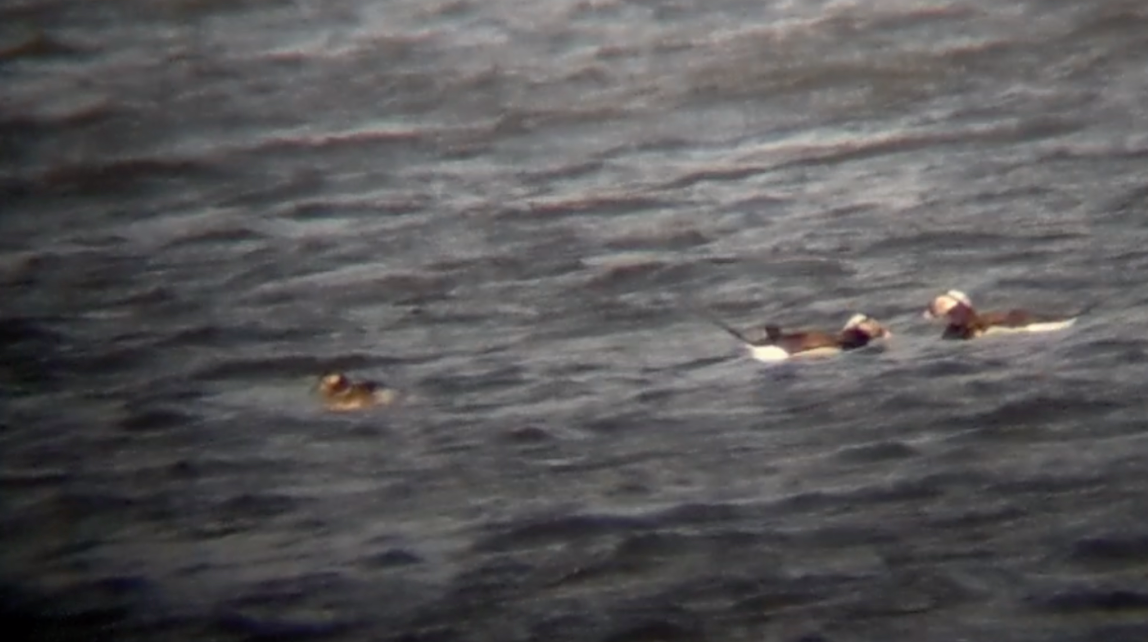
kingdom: Animalia
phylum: Chordata
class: Aves
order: Anseriformes
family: Anatidae
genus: Clangula
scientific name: Clangula hyemalis
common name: Long-tailed duck
